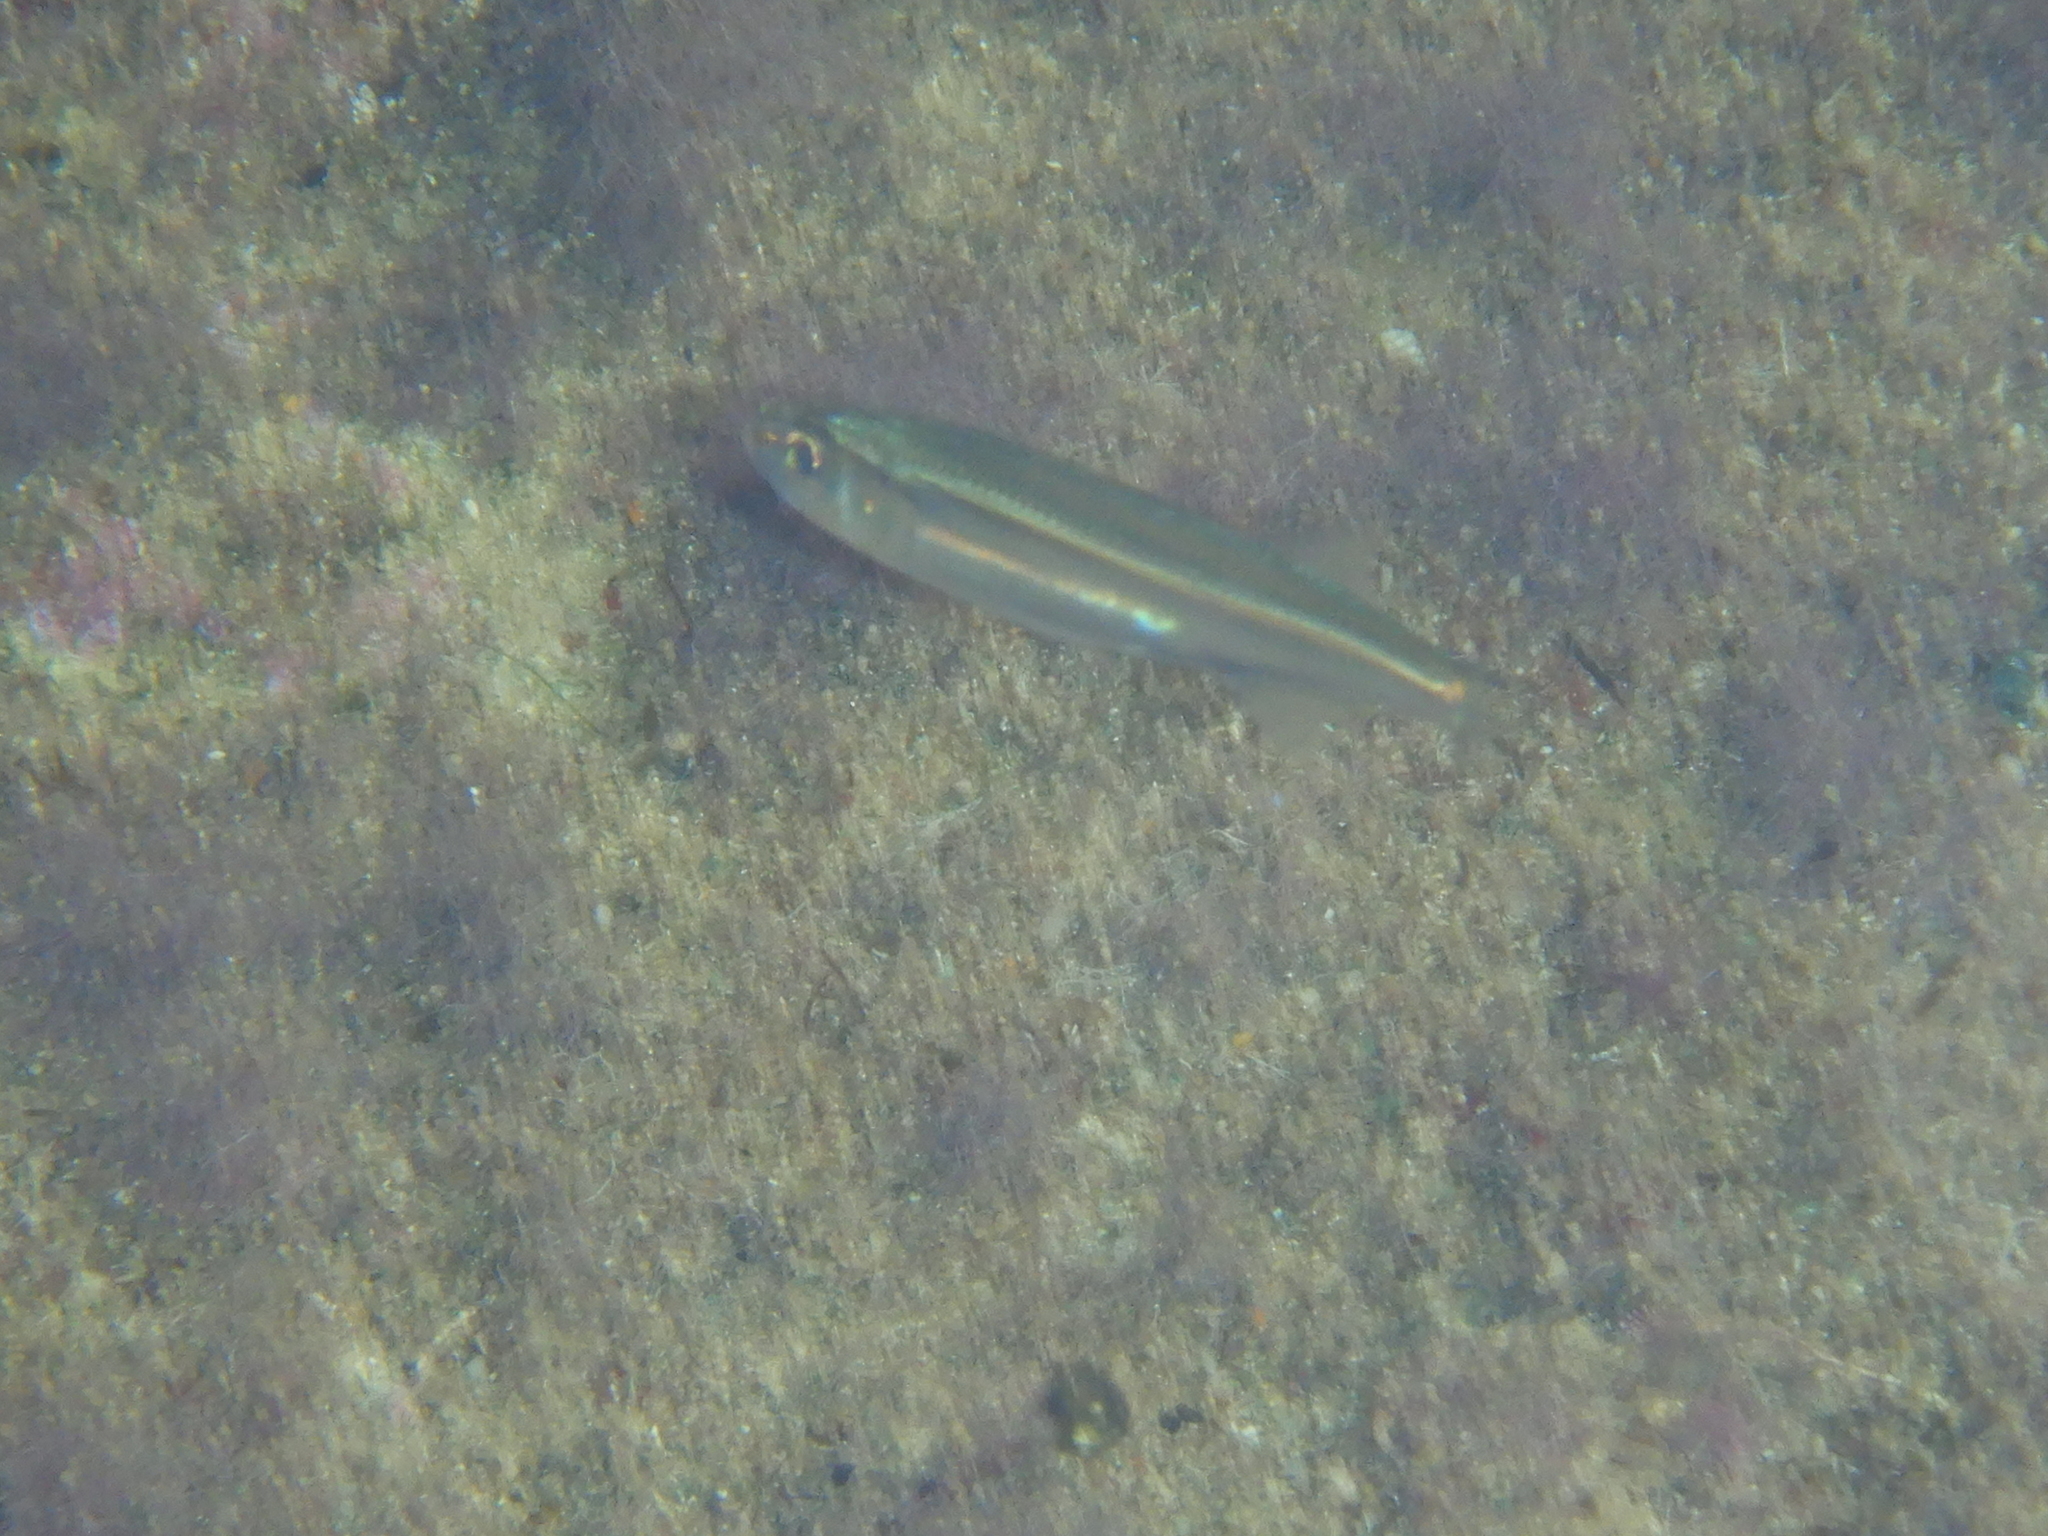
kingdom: Animalia
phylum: Chordata
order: Atheriniformes
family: Atherinidae
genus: Atherina
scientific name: Atherina
